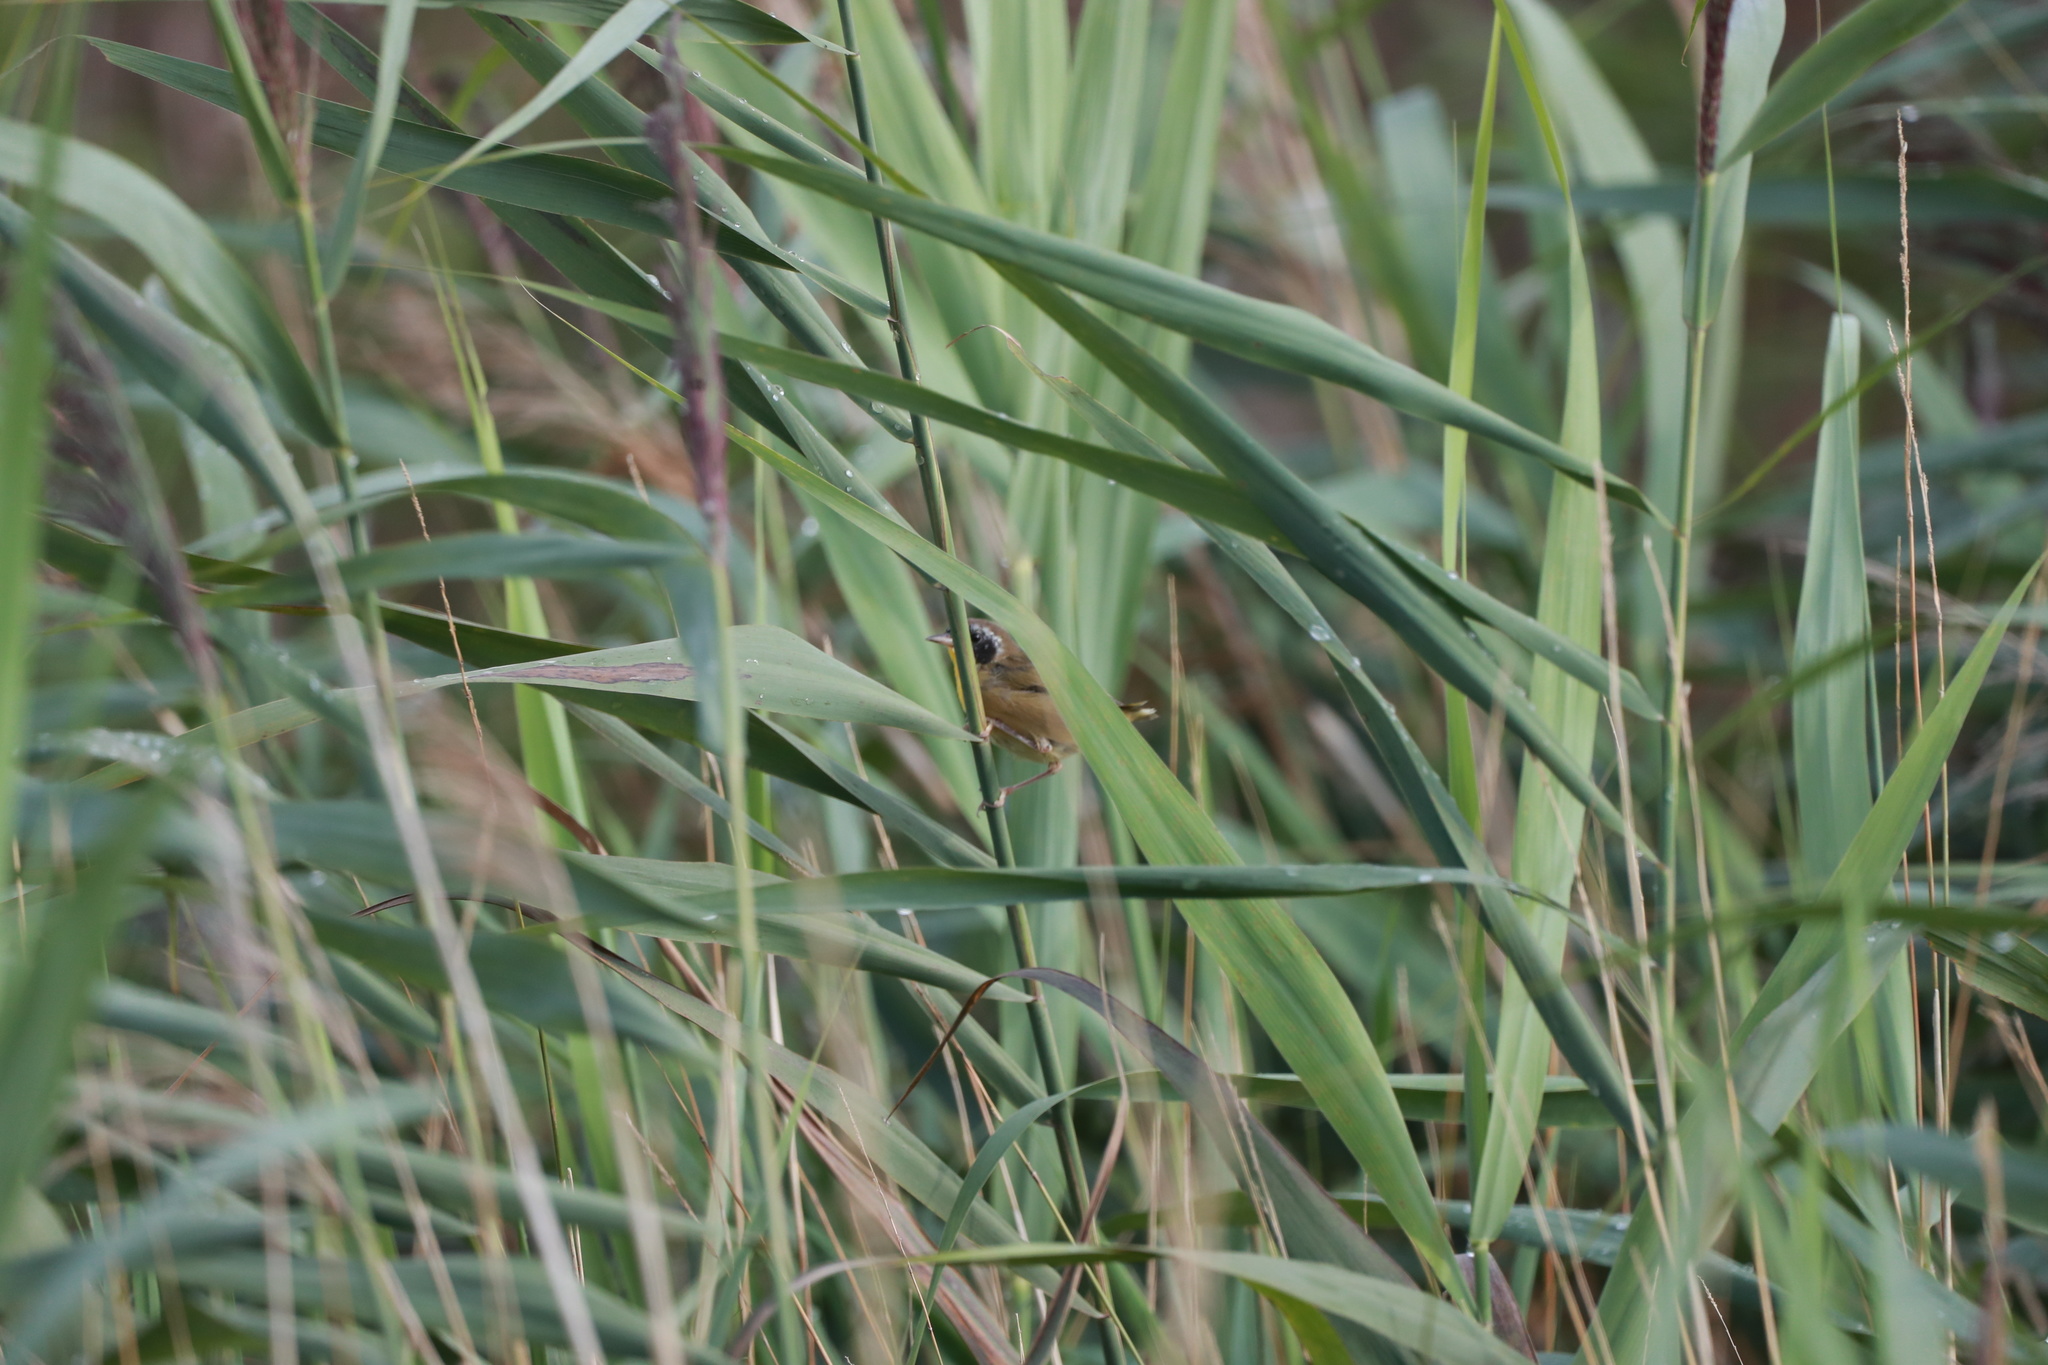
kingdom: Animalia
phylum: Chordata
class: Aves
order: Passeriformes
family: Parulidae
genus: Geothlypis
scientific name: Geothlypis trichas
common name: Common yellowthroat
